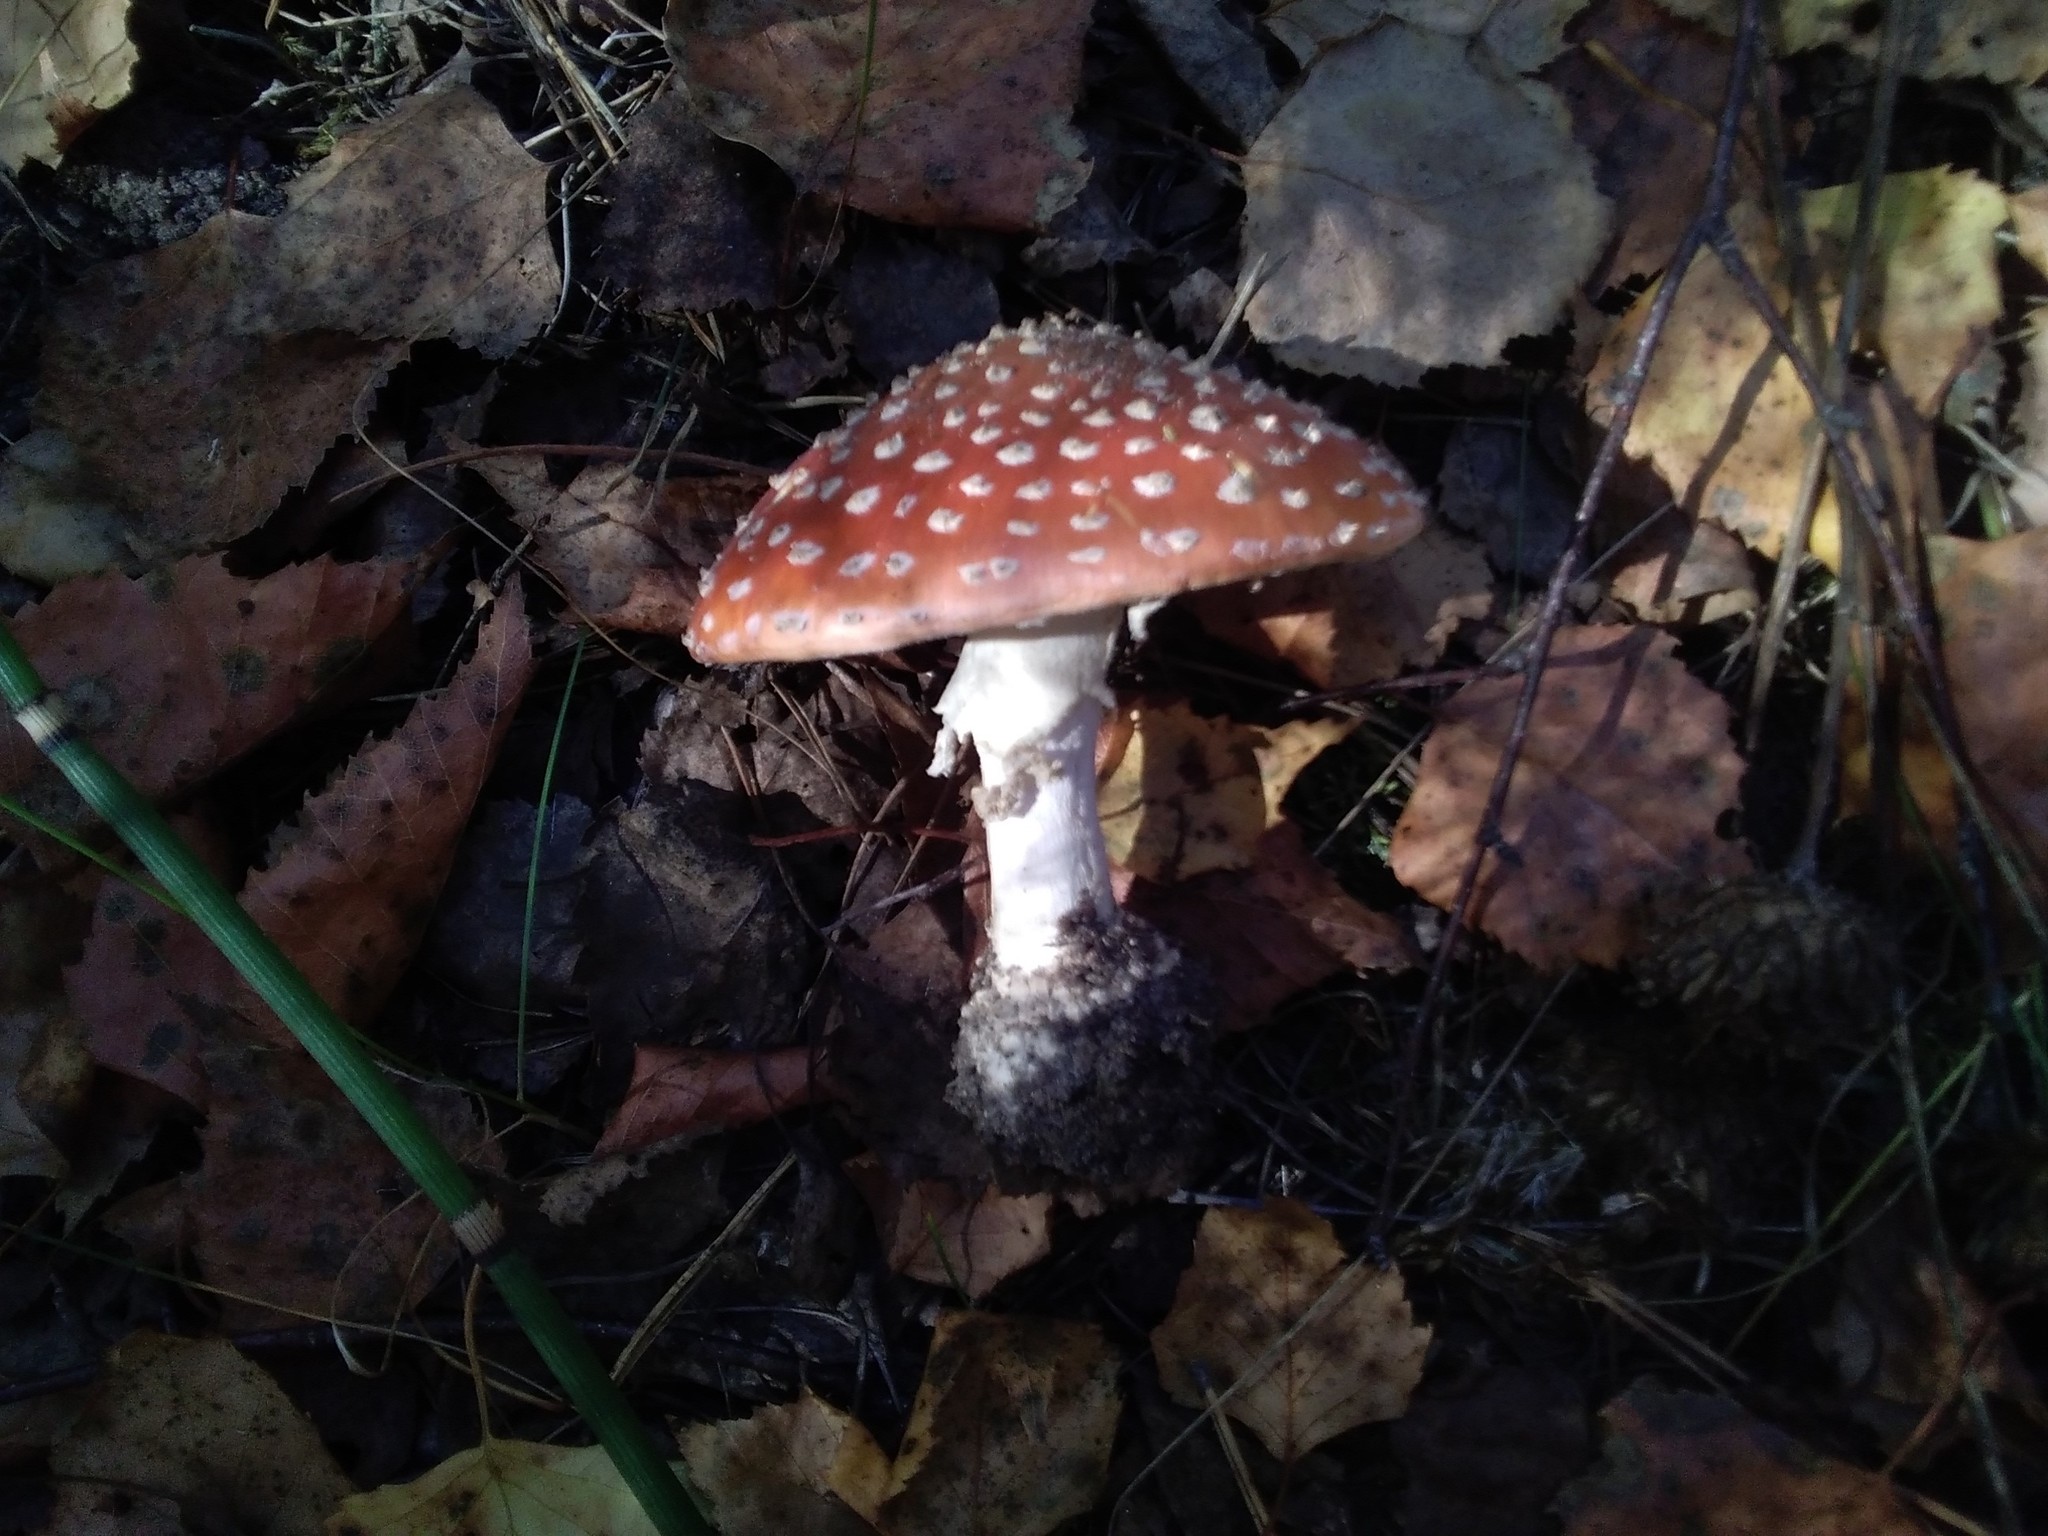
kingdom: Fungi
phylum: Basidiomycota
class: Agaricomycetes
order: Agaricales
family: Amanitaceae
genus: Amanita
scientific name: Amanita muscaria
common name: Fly agaric
